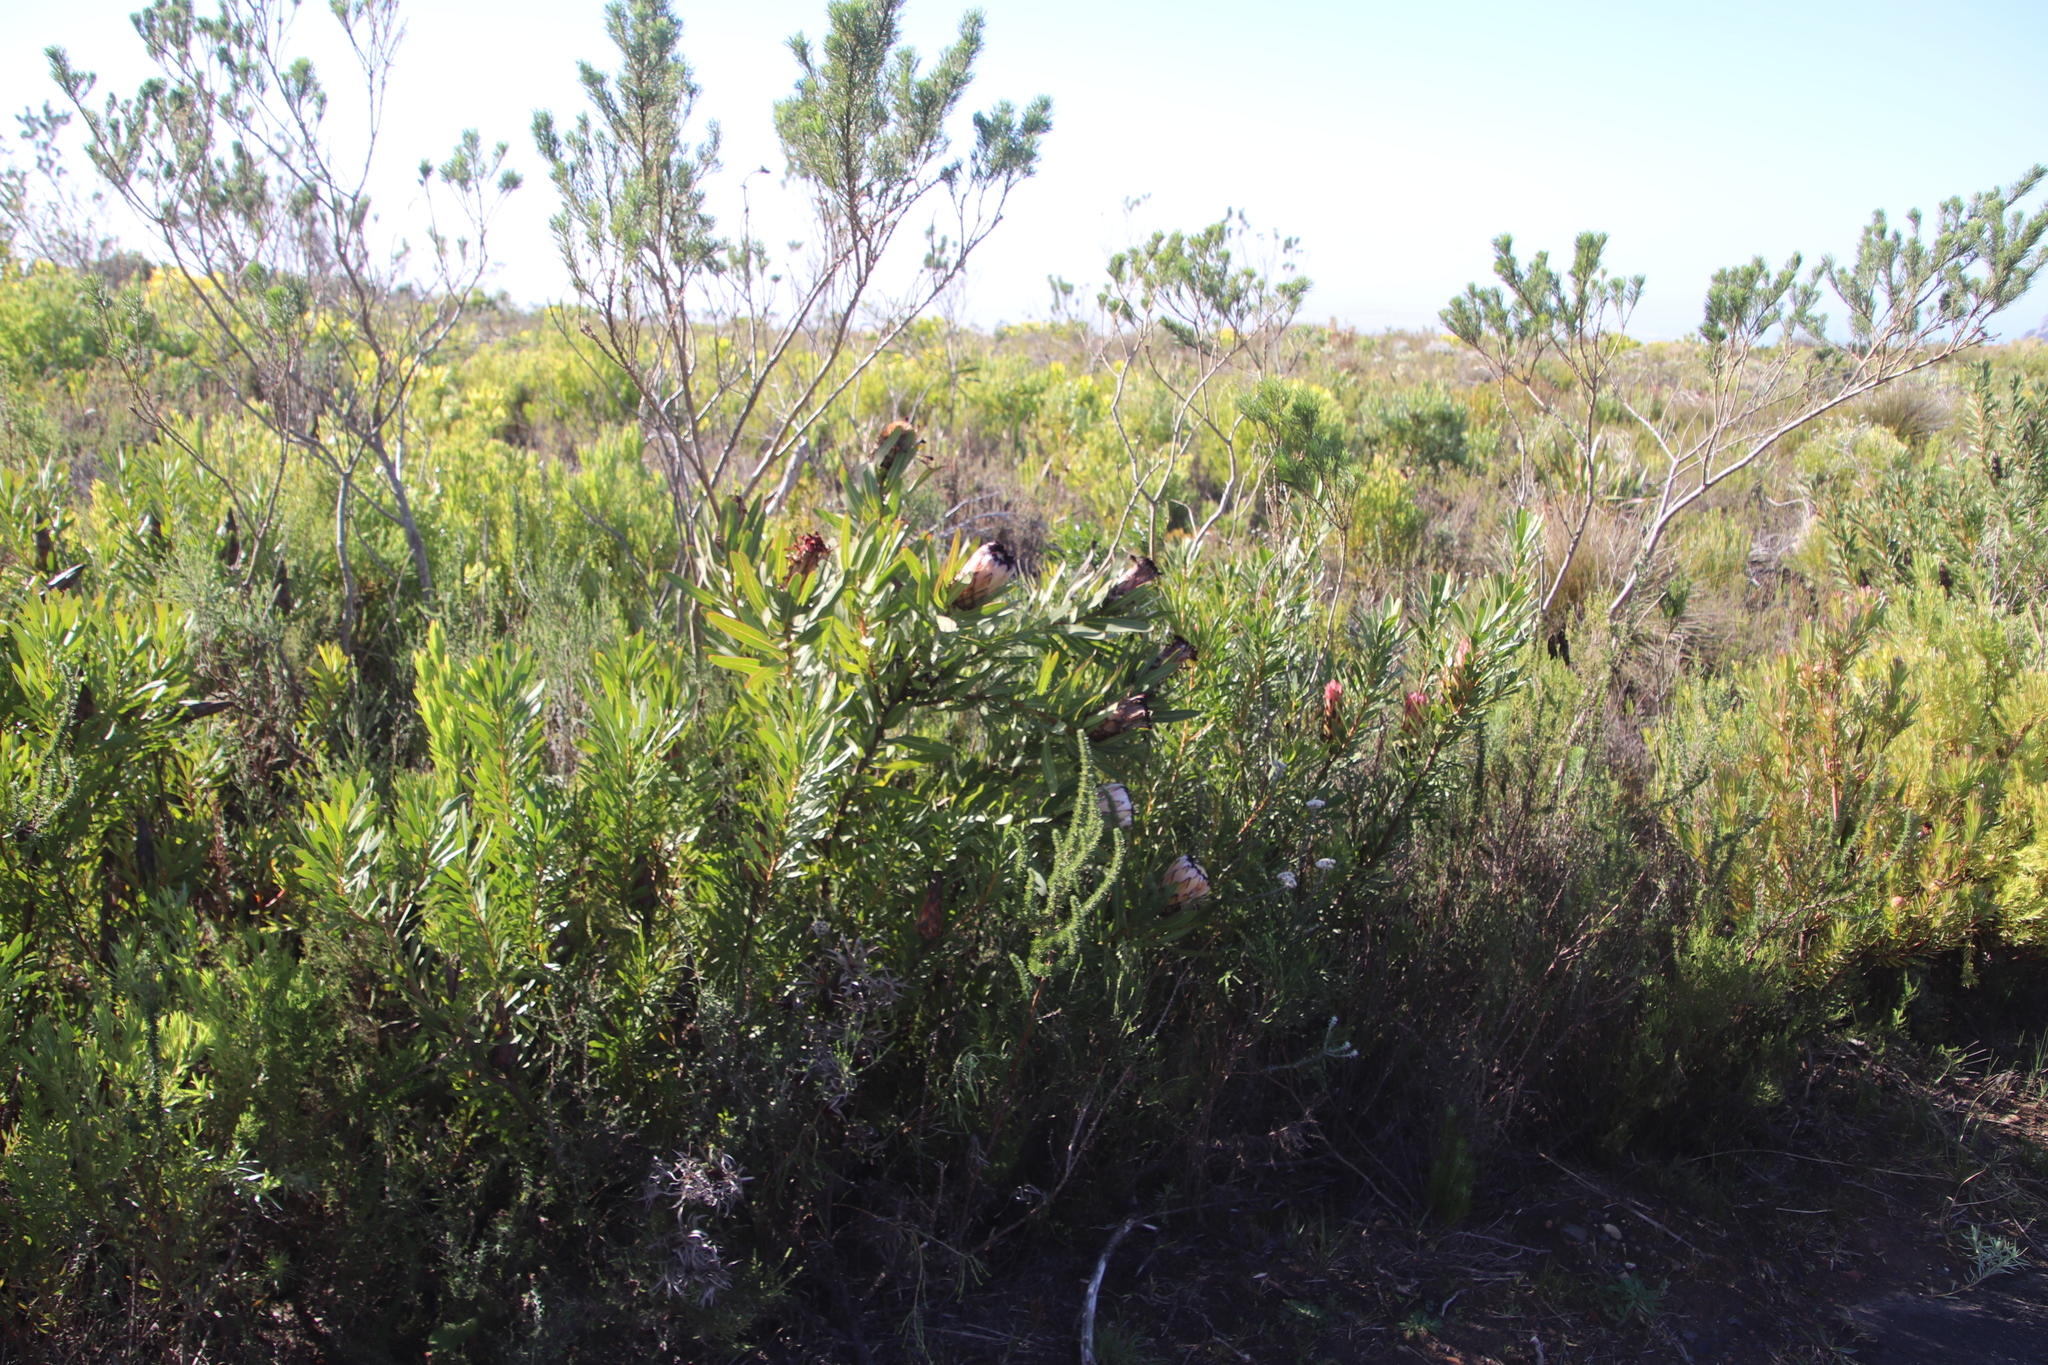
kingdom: Plantae
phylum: Tracheophyta
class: Magnoliopsida
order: Proteales
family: Proteaceae
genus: Protea
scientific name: Protea neriifolia
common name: Blue sugarbush
